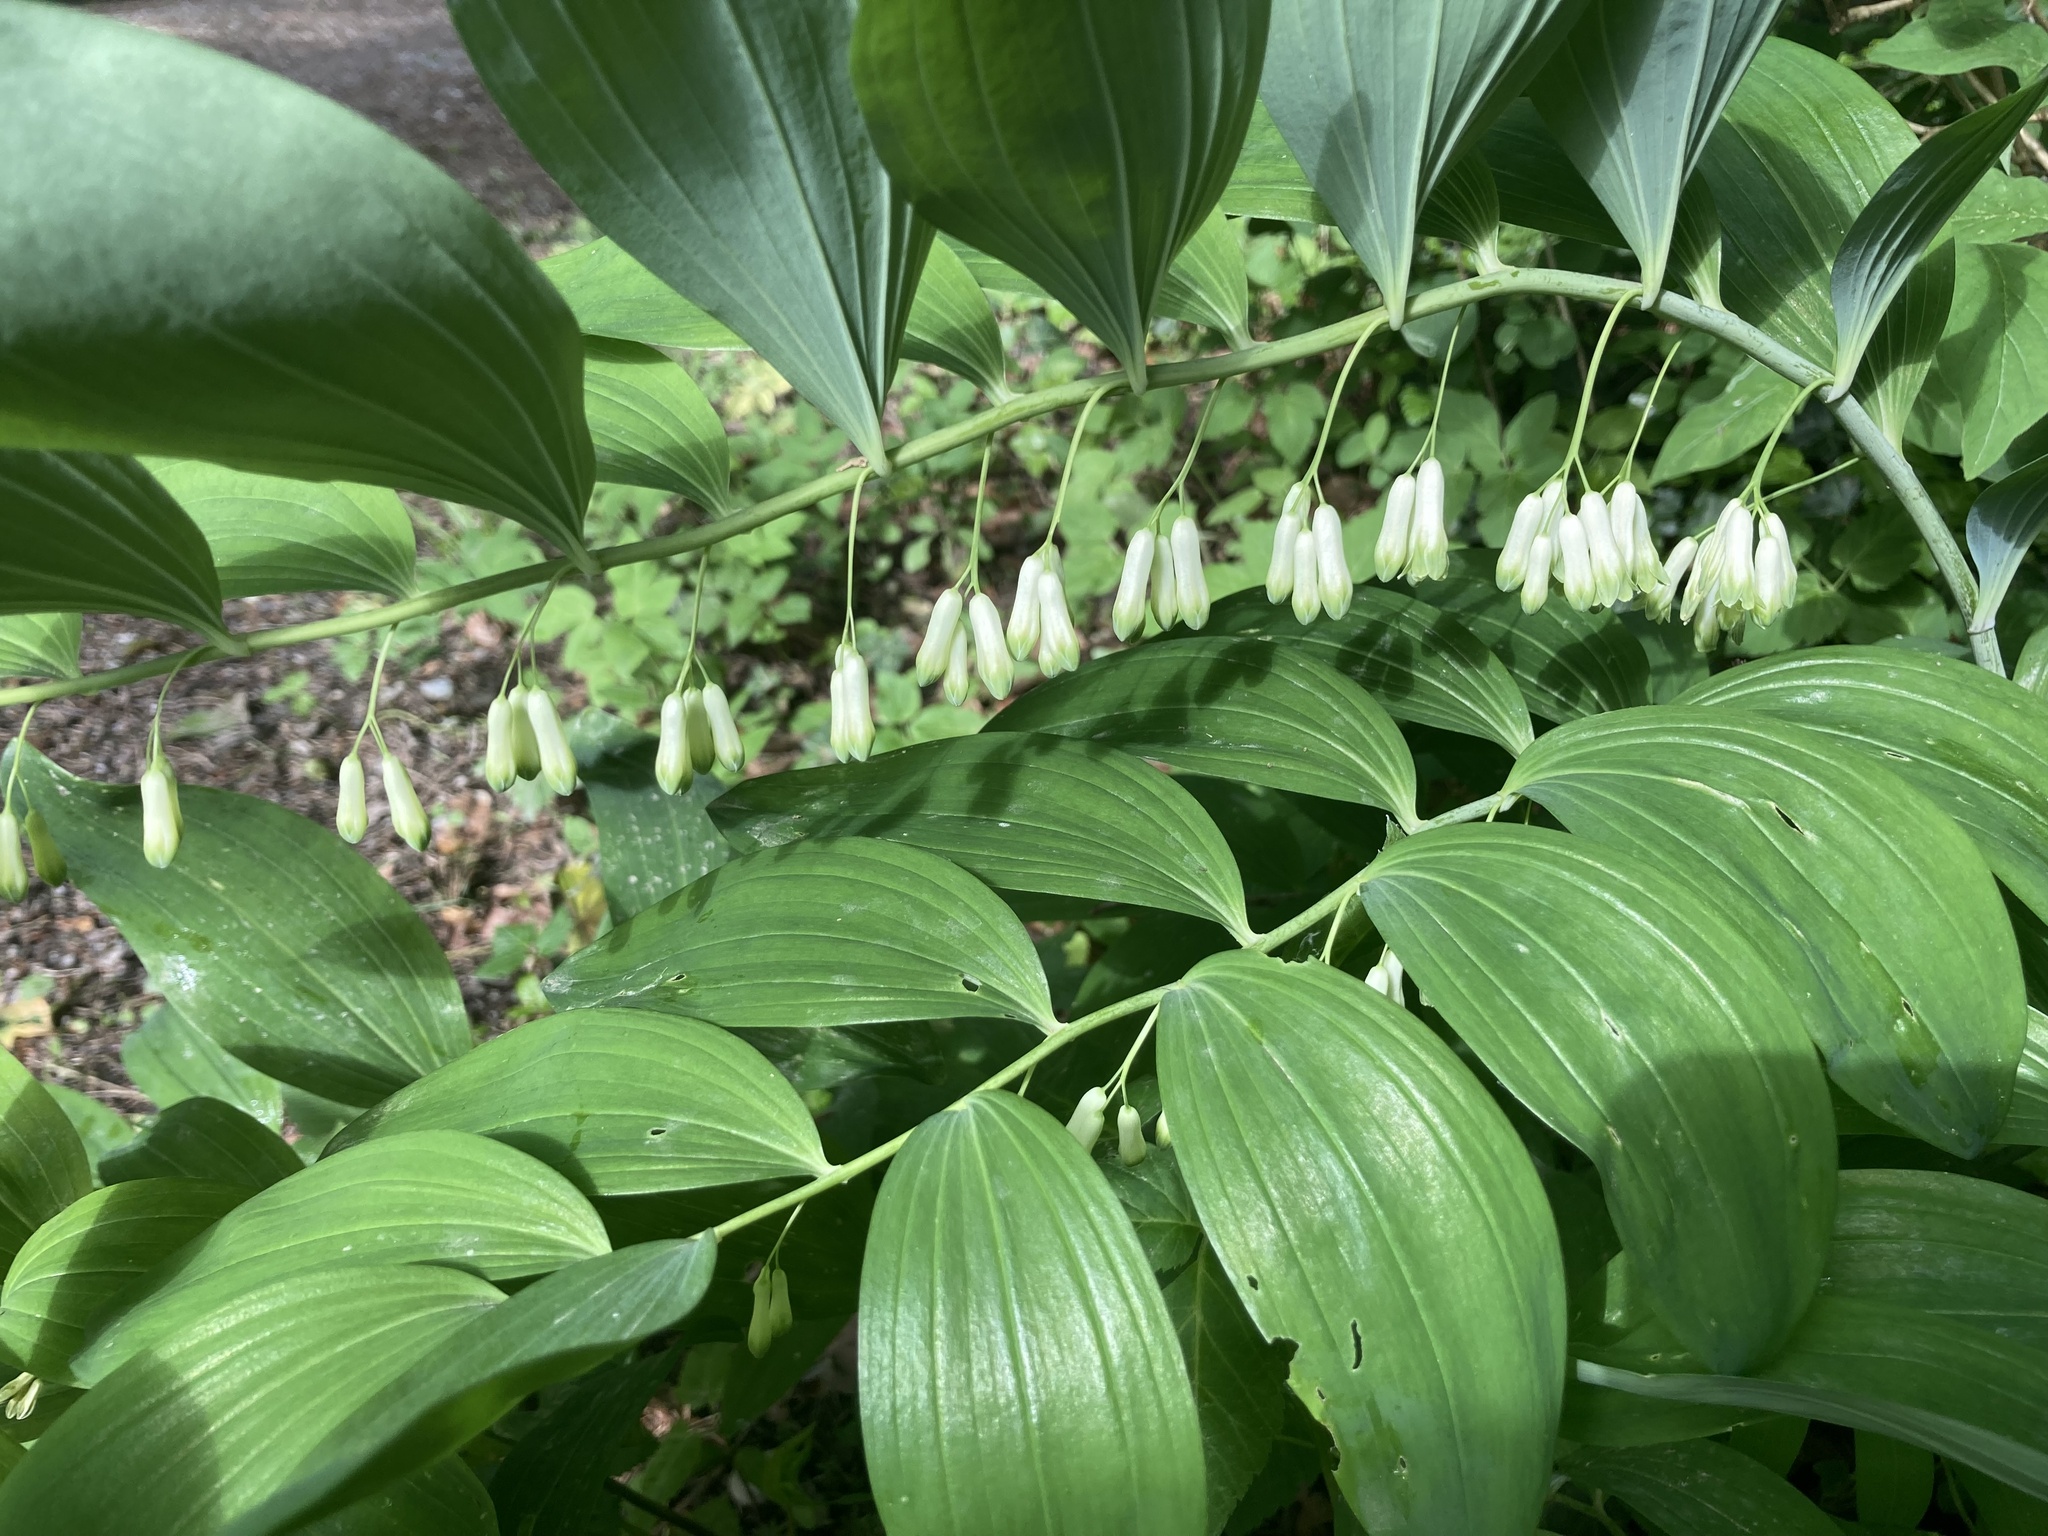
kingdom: Plantae
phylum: Tracheophyta
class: Liliopsida
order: Asparagales
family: Asparagaceae
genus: Polygonatum
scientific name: Polygonatum multiflorum
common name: Solomon's-seal
